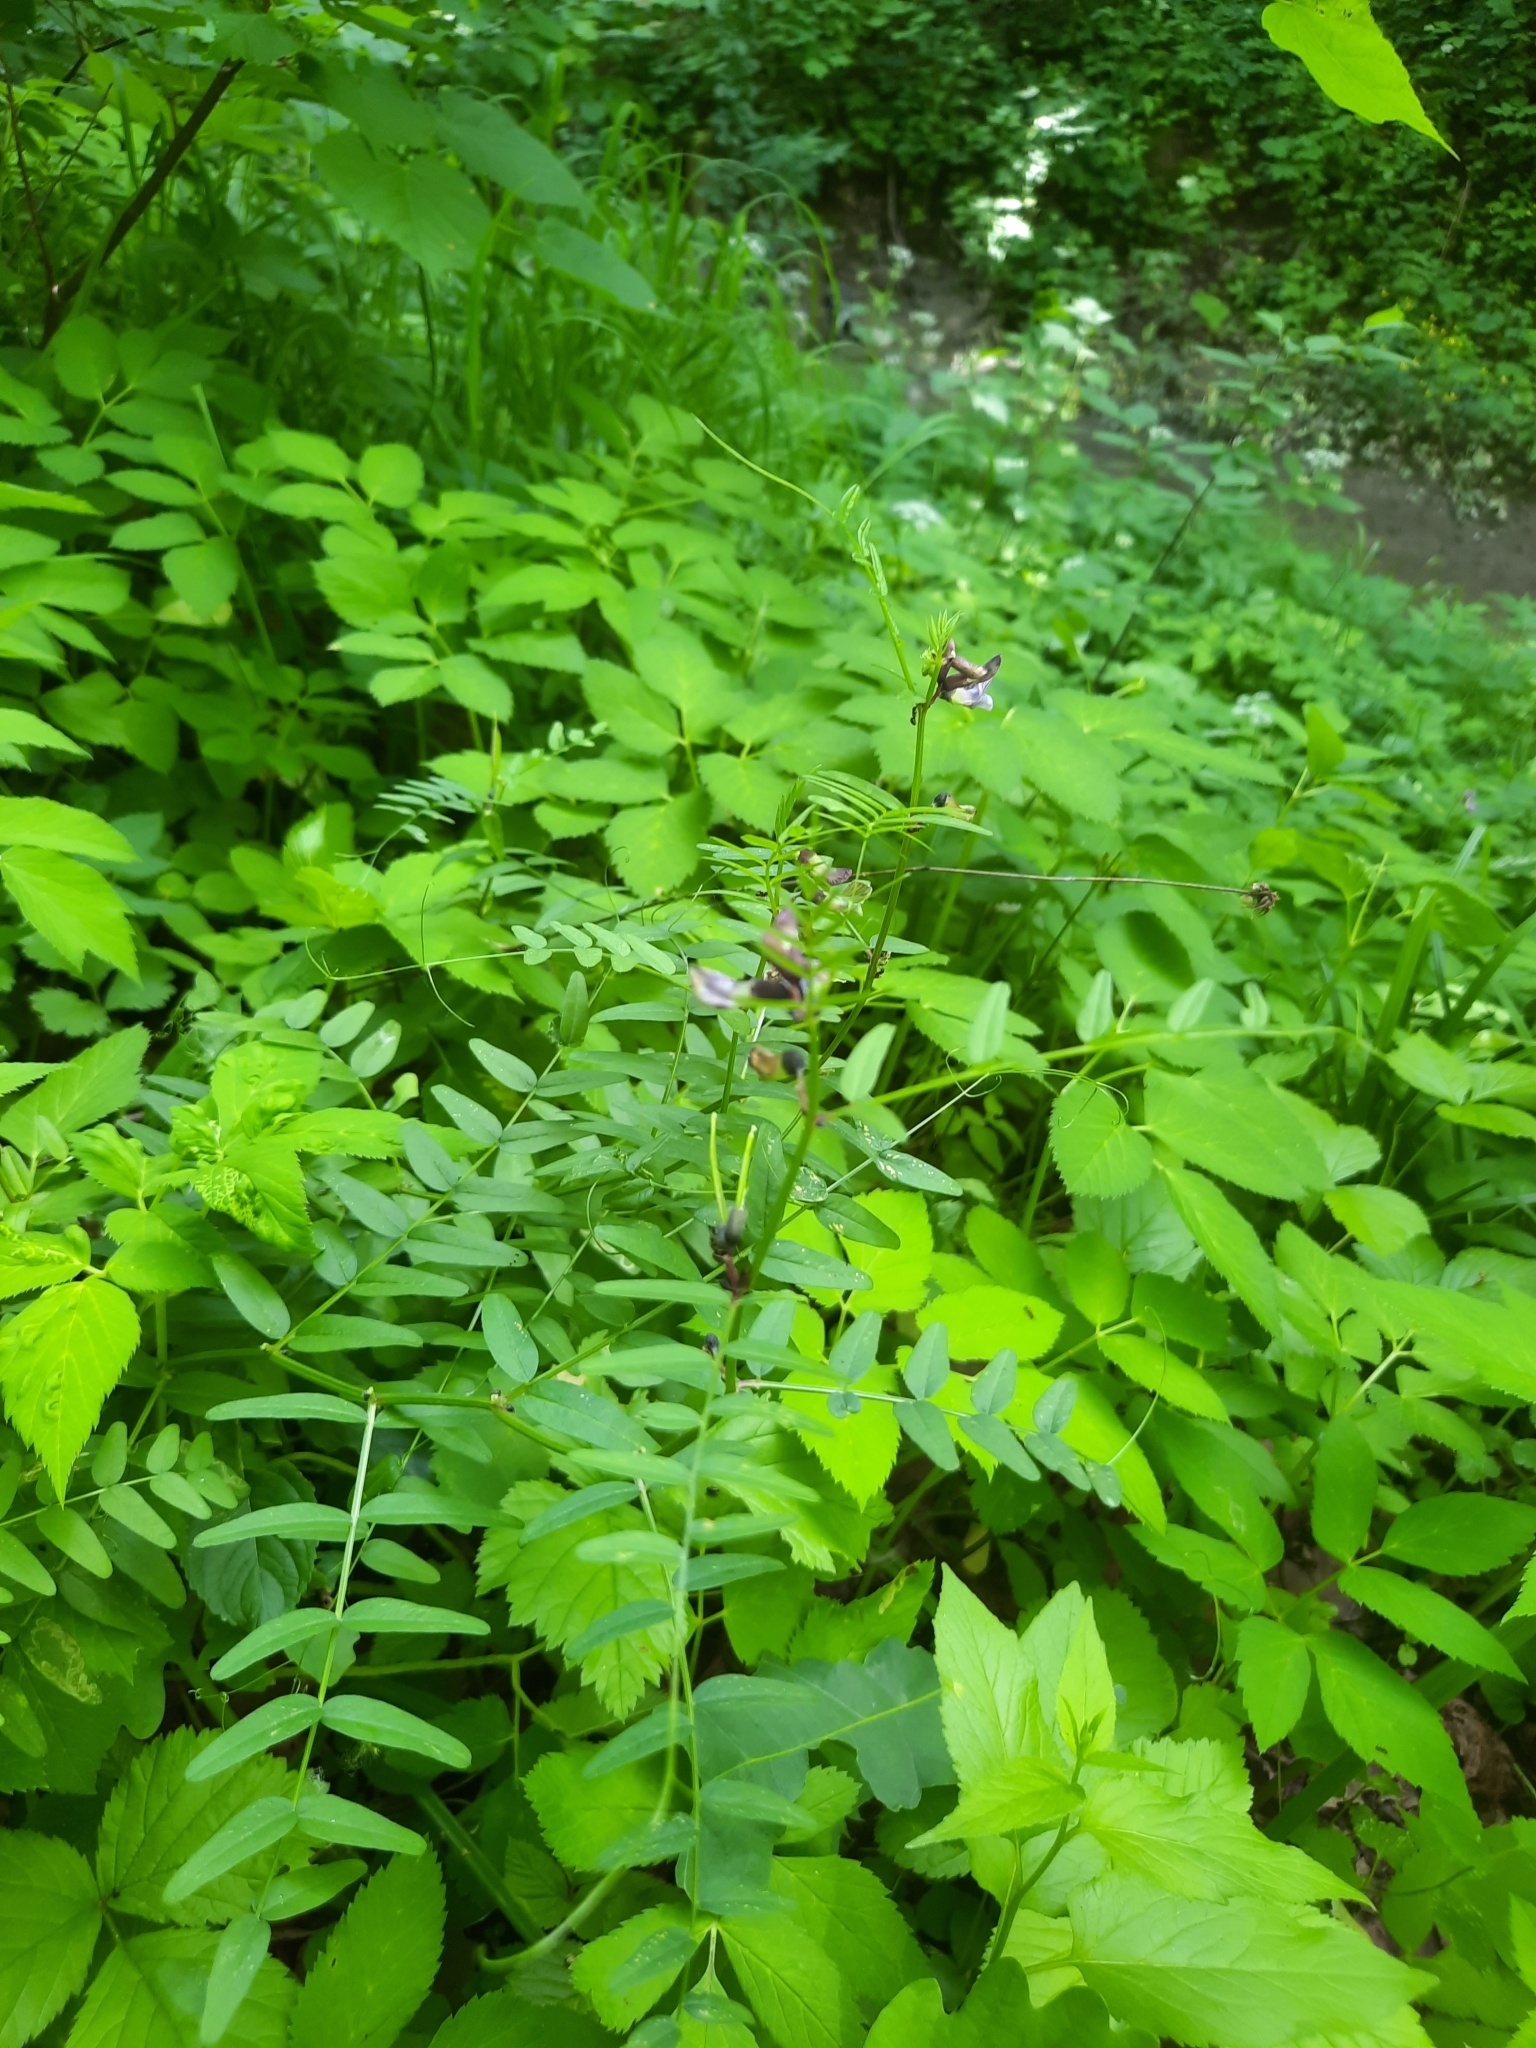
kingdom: Plantae
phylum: Tracheophyta
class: Magnoliopsida
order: Fabales
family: Fabaceae
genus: Vicia
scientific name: Vicia sepium
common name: Bush vetch
